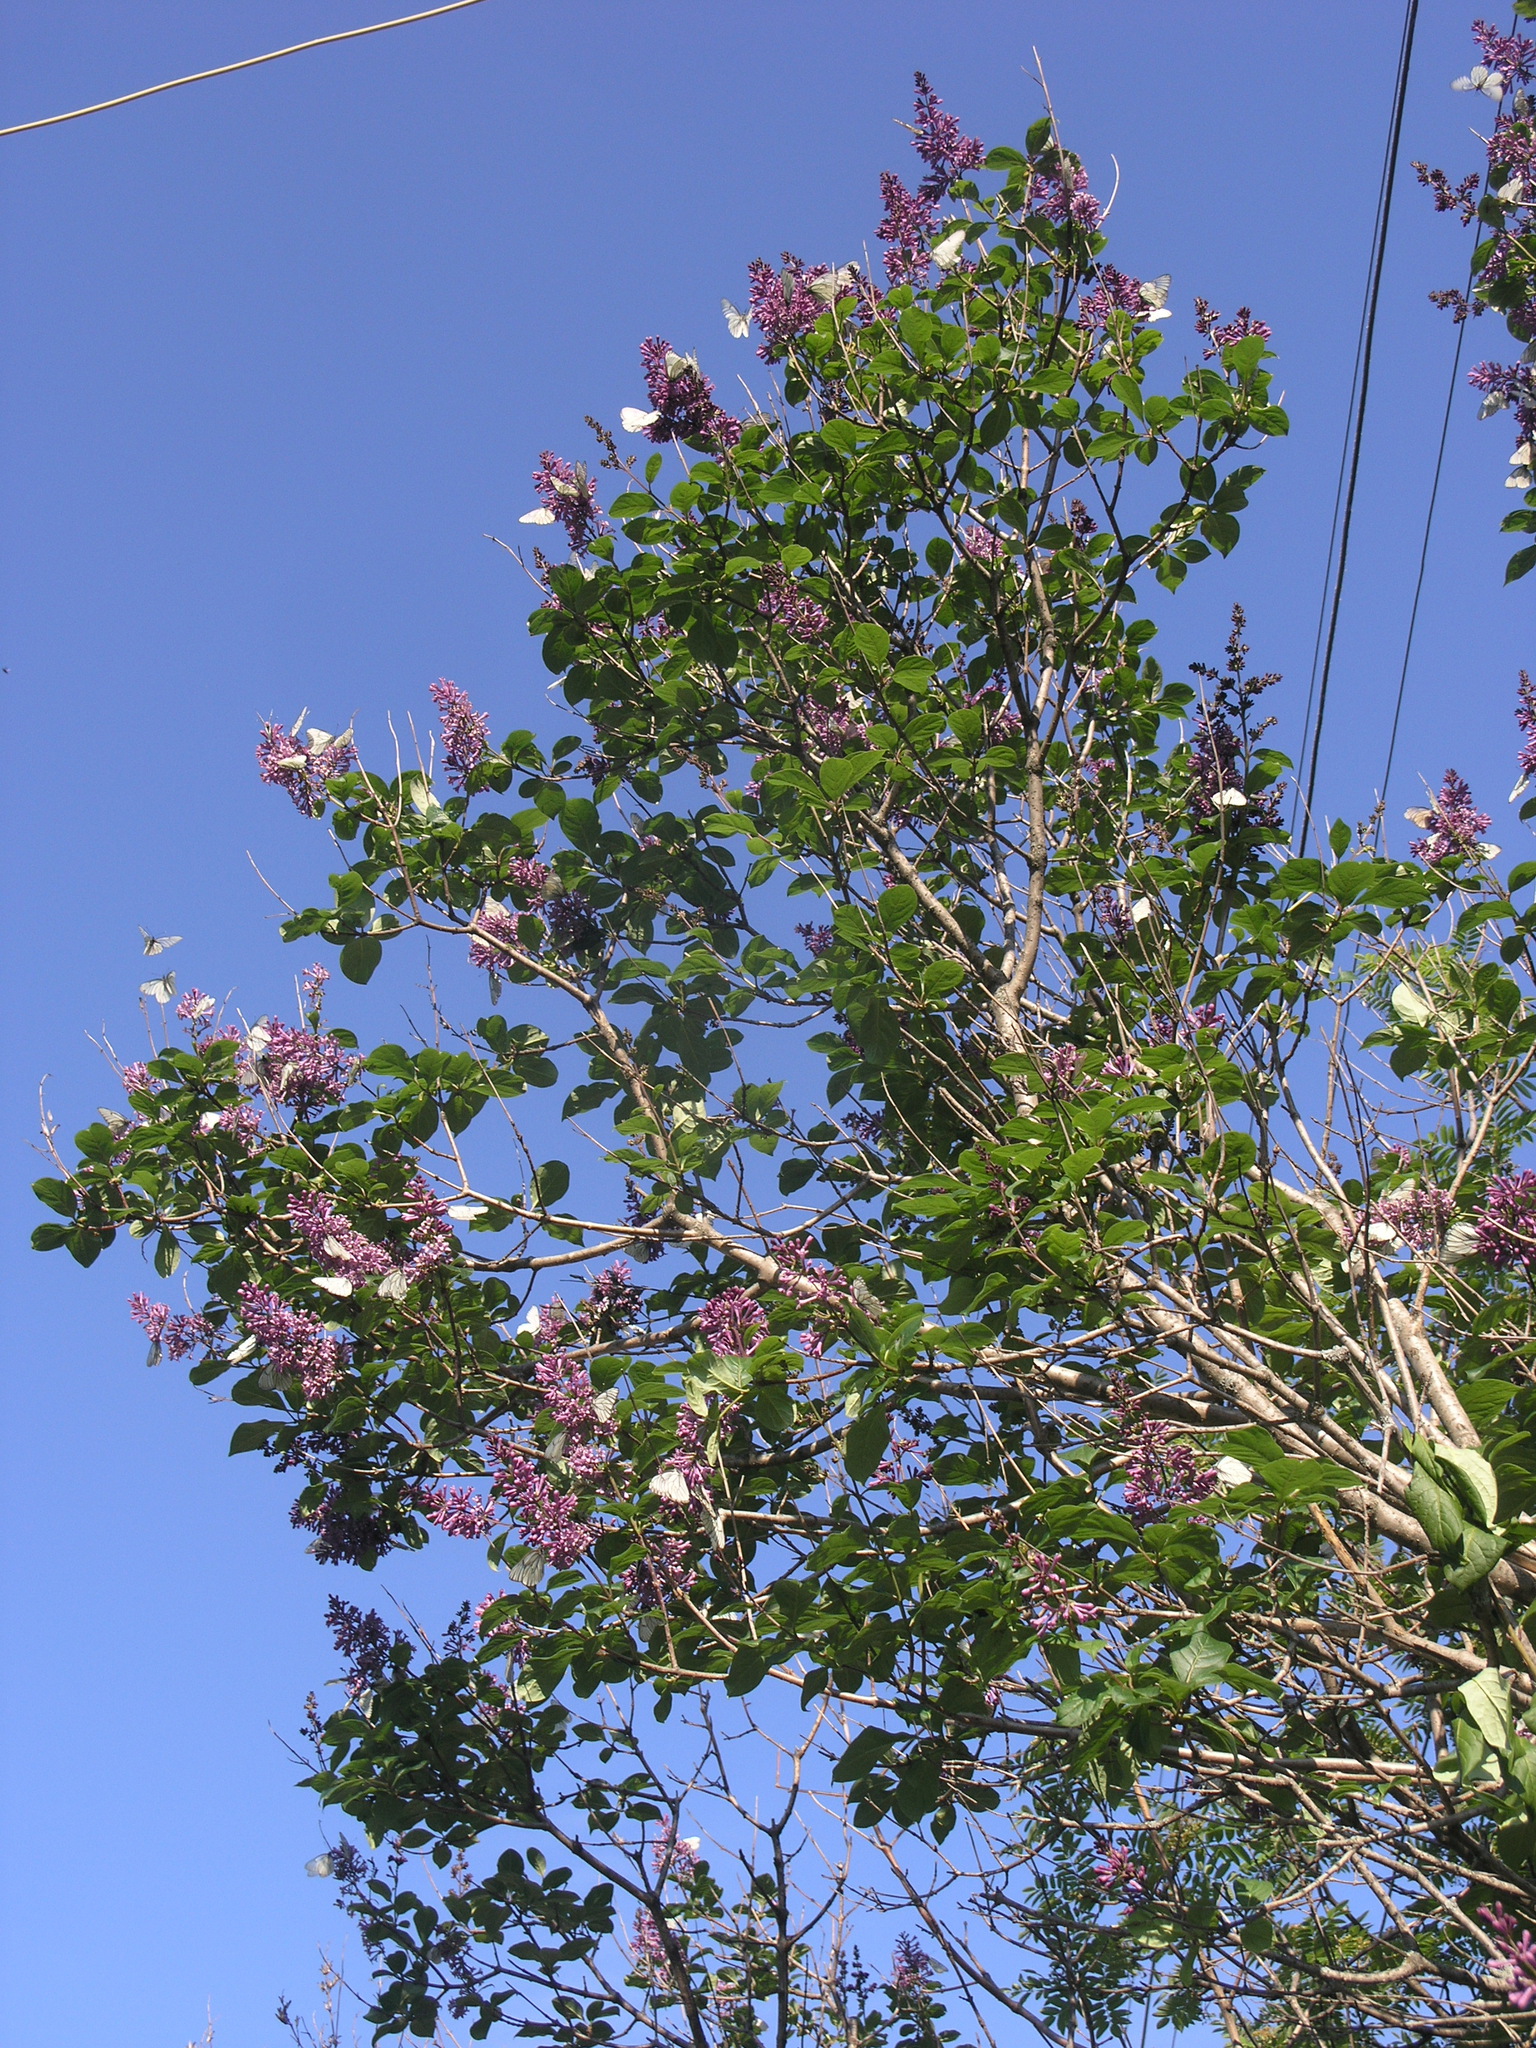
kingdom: Animalia
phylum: Arthropoda
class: Insecta
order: Lepidoptera
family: Pieridae
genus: Aporia
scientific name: Aporia crataegi
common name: Black-veined white
